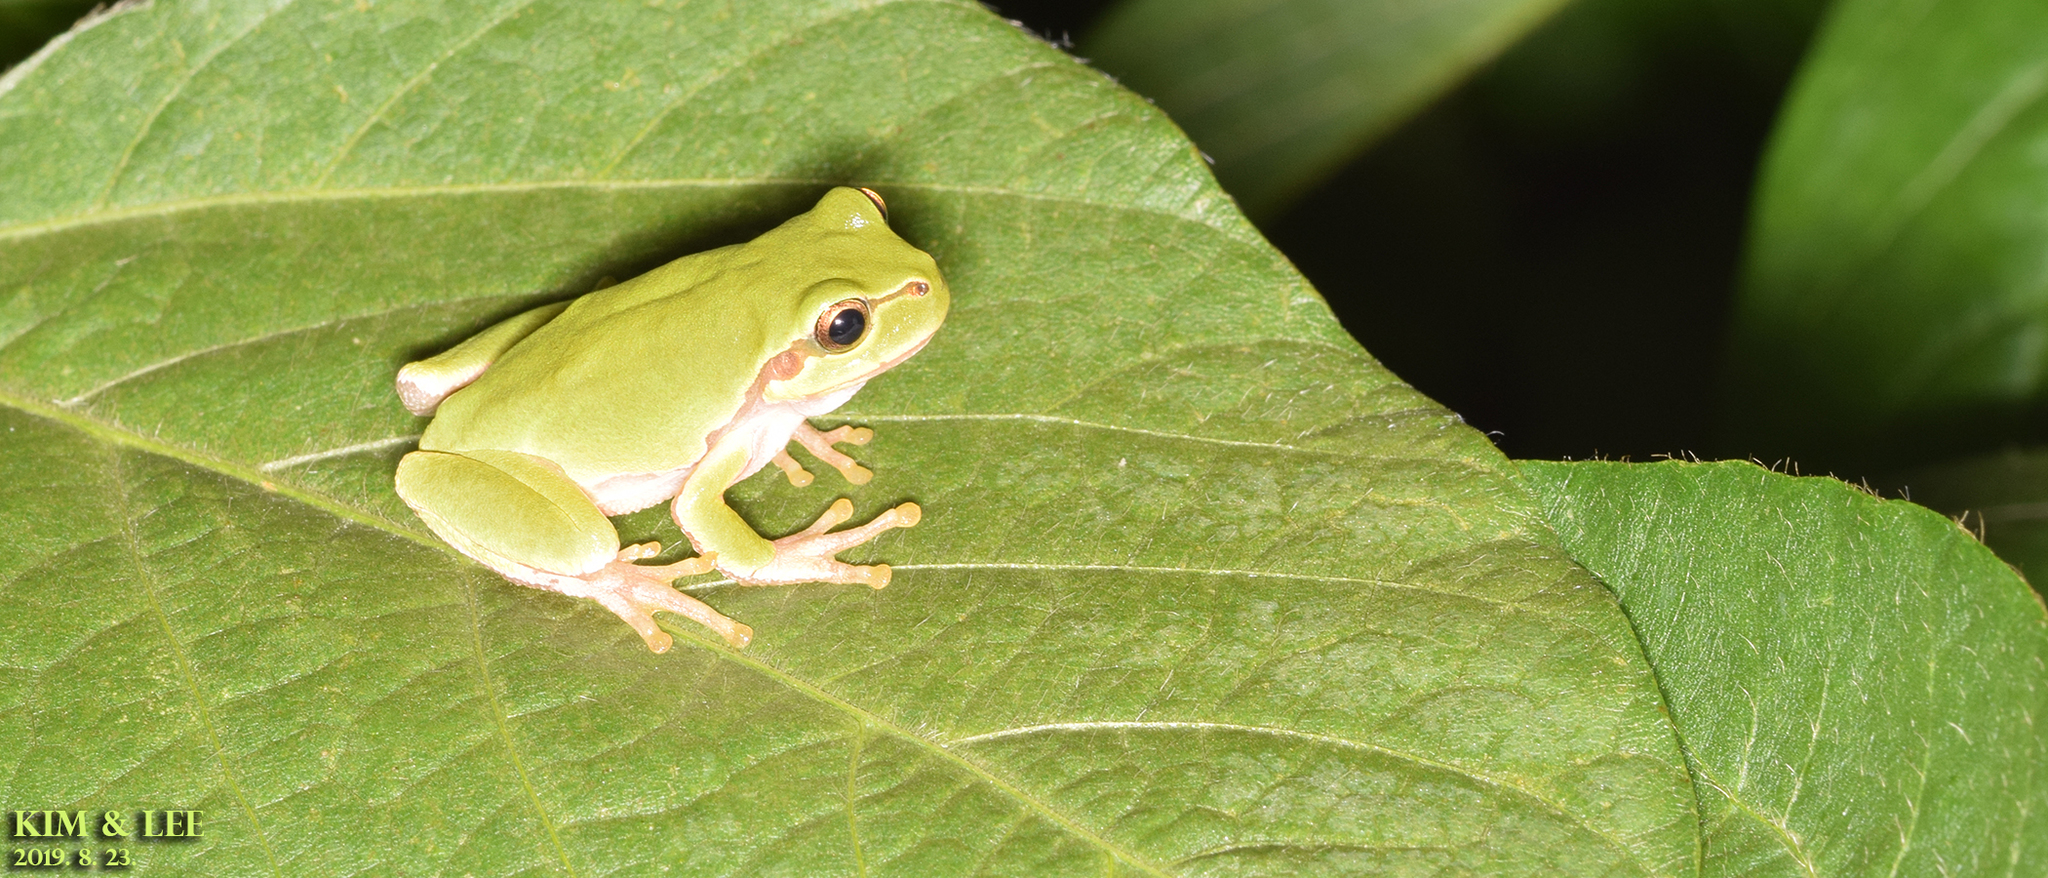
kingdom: Animalia
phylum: Chordata
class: Amphibia
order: Anura
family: Hylidae
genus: Dryophytes
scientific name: Dryophytes japonicus
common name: Japanese treefrog
